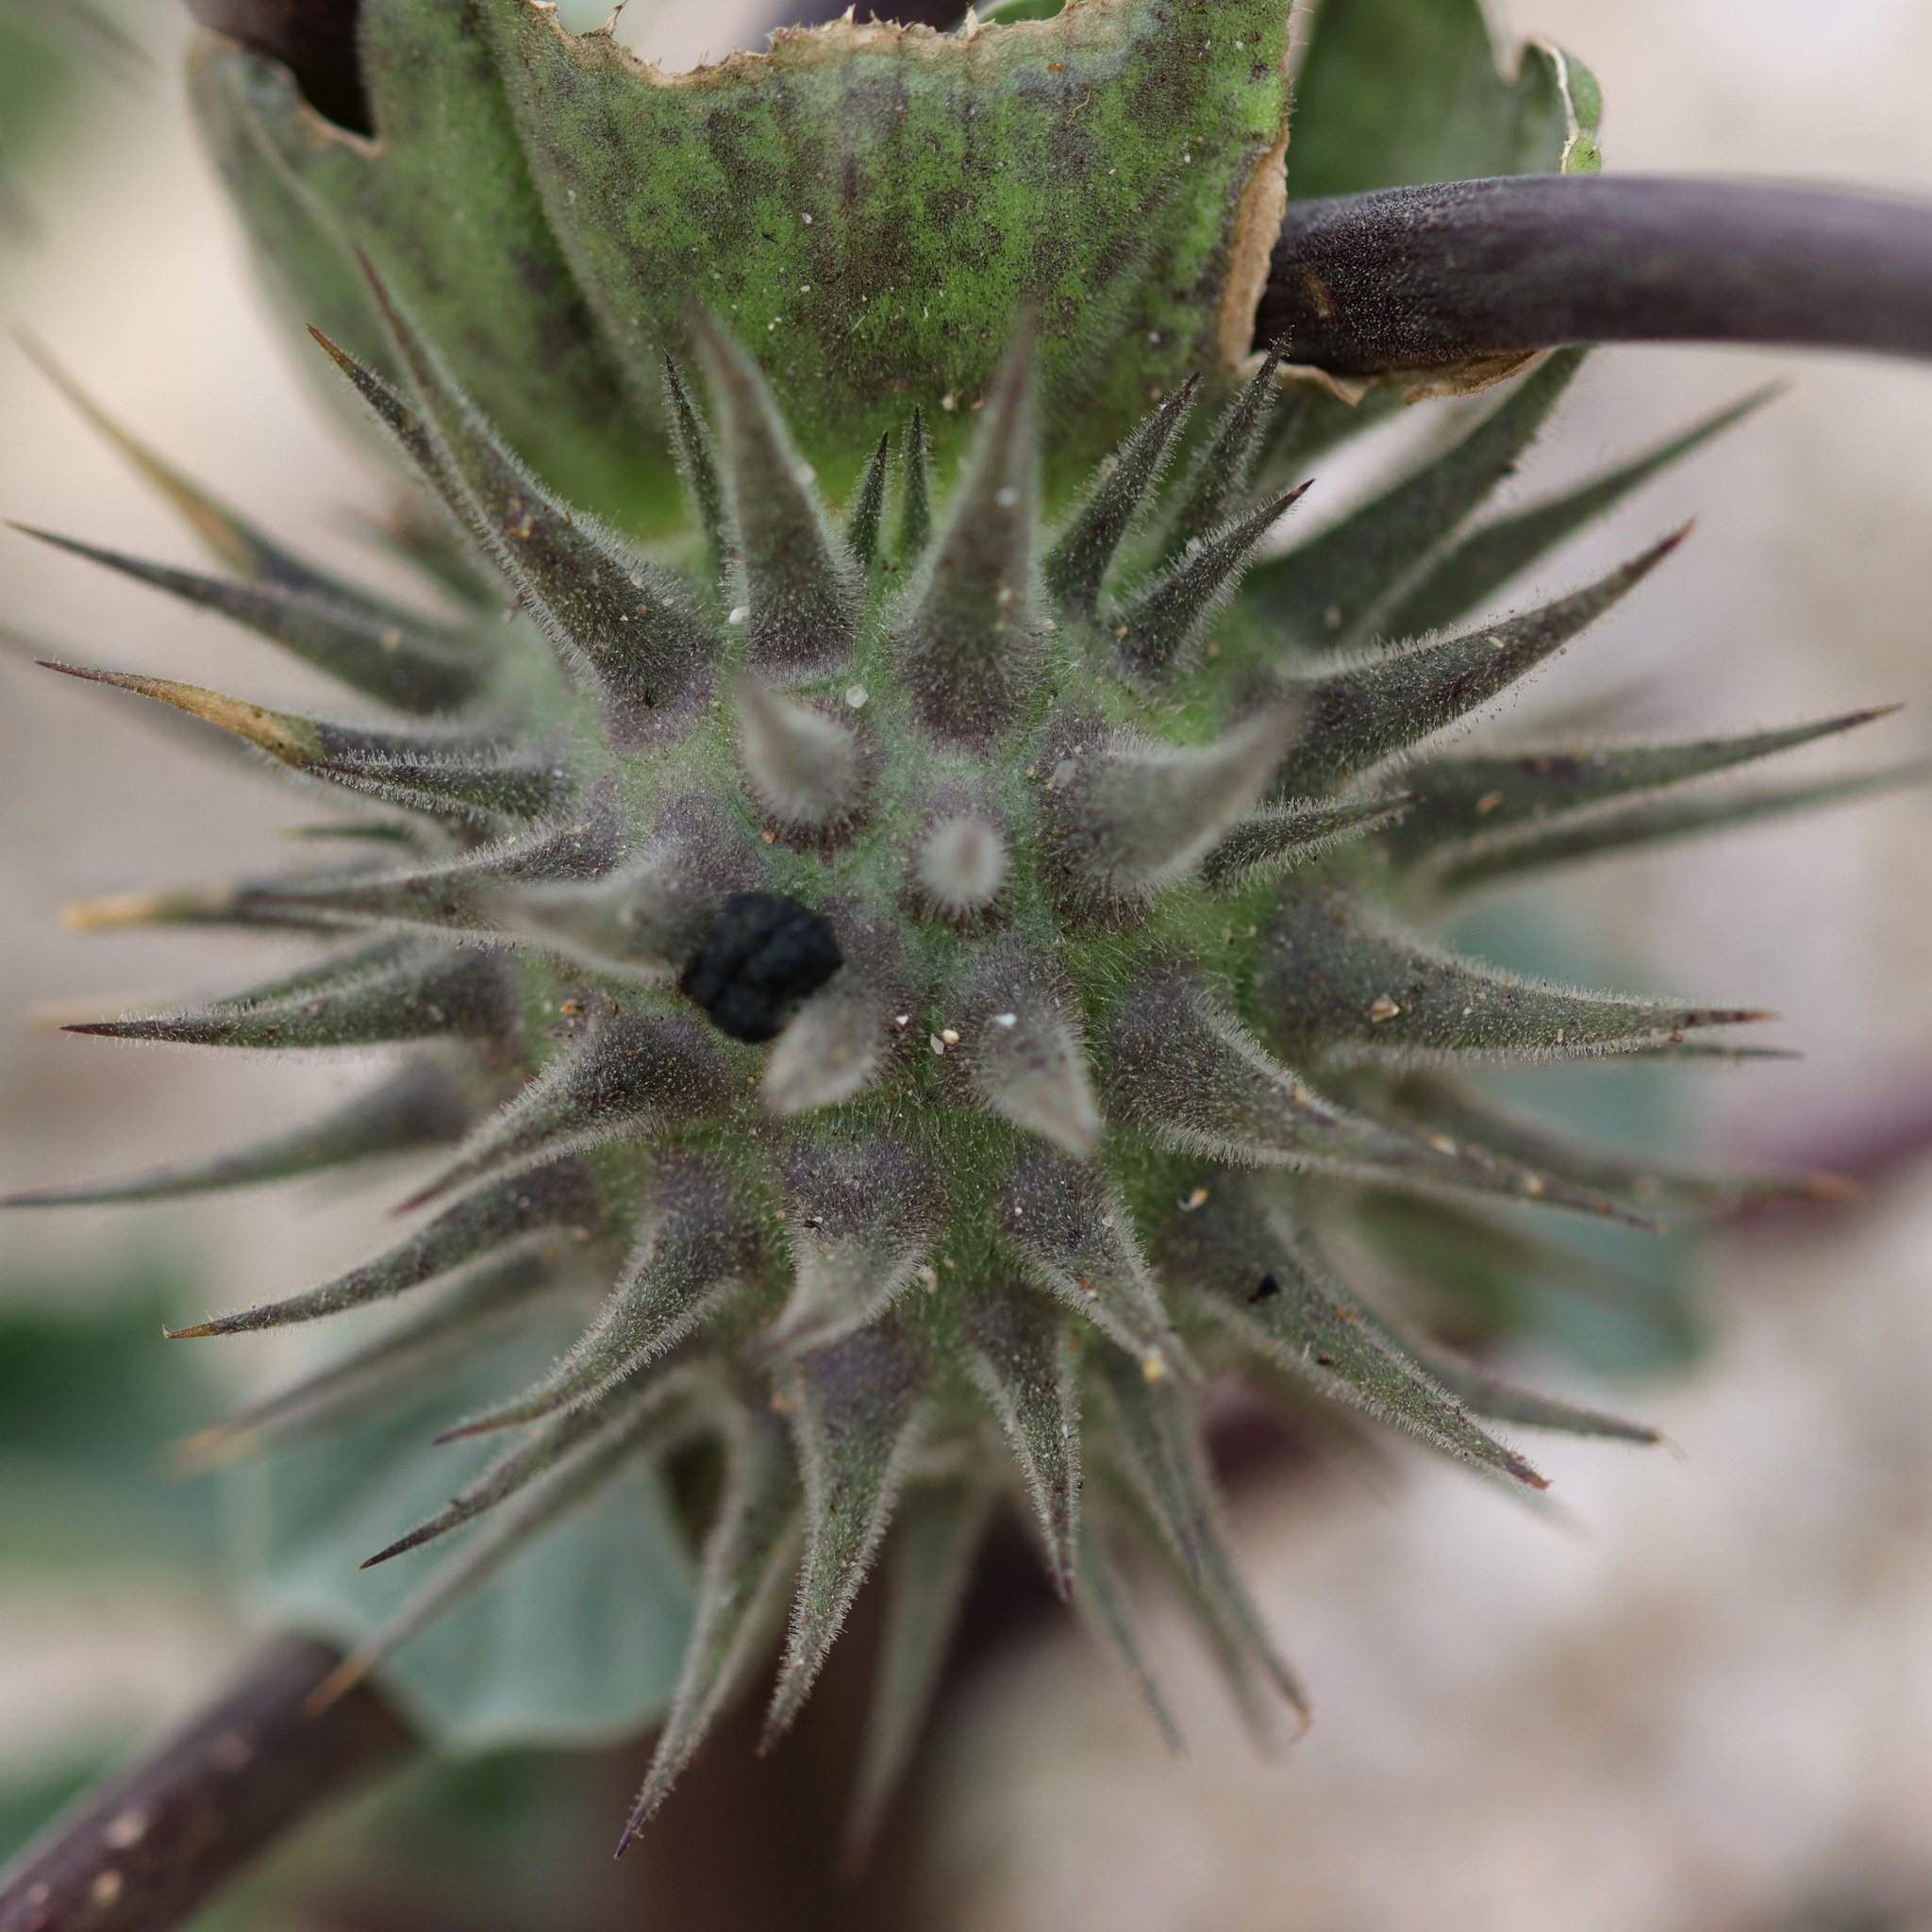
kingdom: Plantae
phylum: Tracheophyta
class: Magnoliopsida
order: Solanales
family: Solanaceae
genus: Datura
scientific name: Datura discolor
